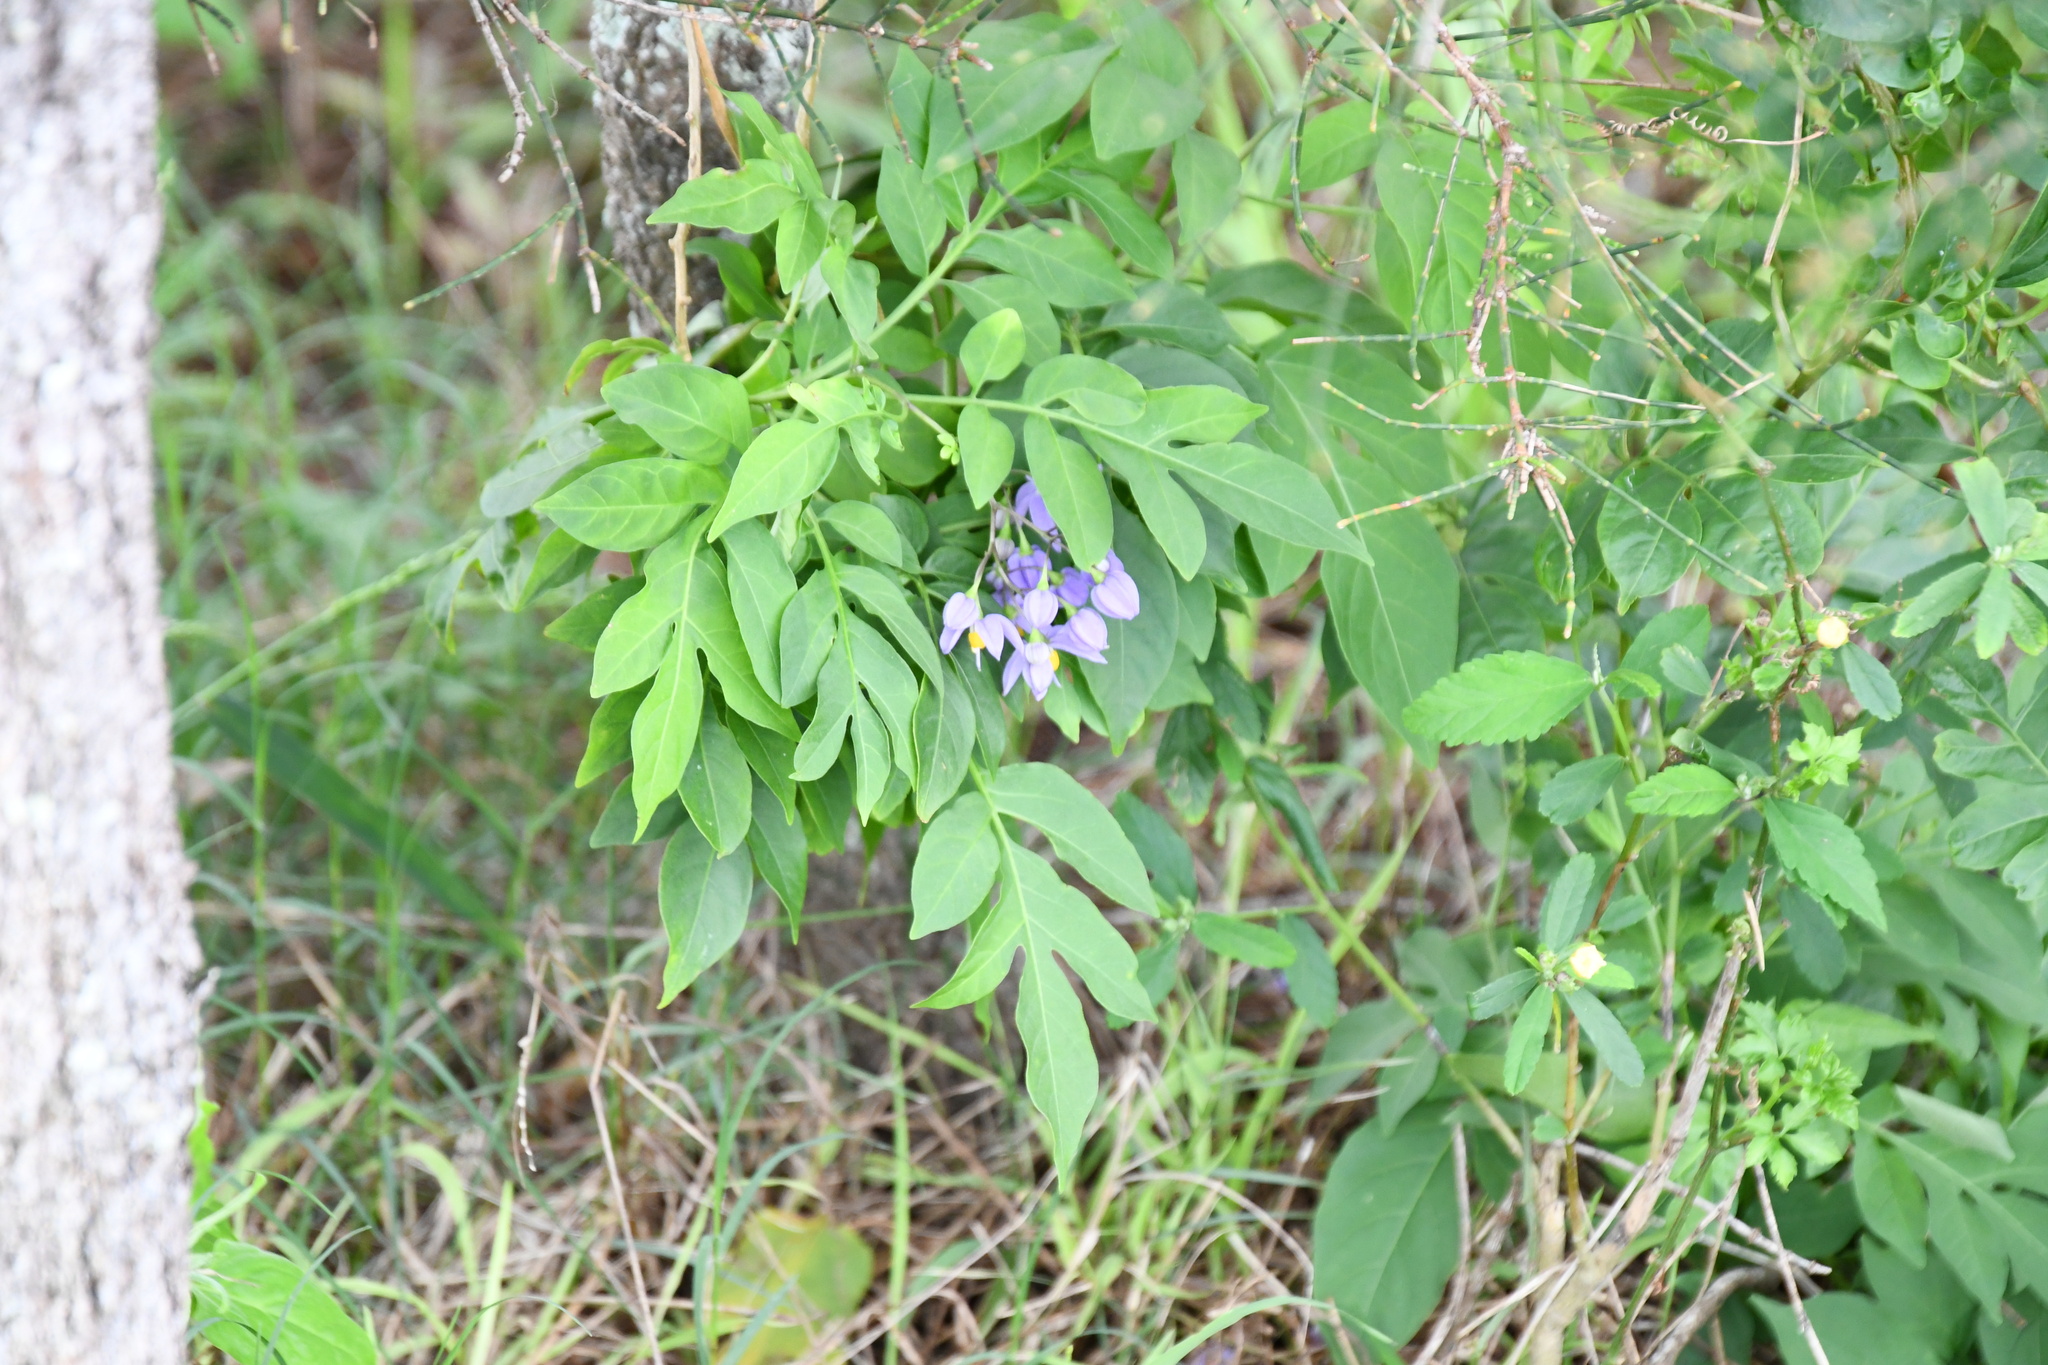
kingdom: Plantae
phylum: Tracheophyta
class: Magnoliopsida
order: Solanales
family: Solanaceae
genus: Solanum
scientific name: Solanum seaforthianum
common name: Brazilian nightshade
